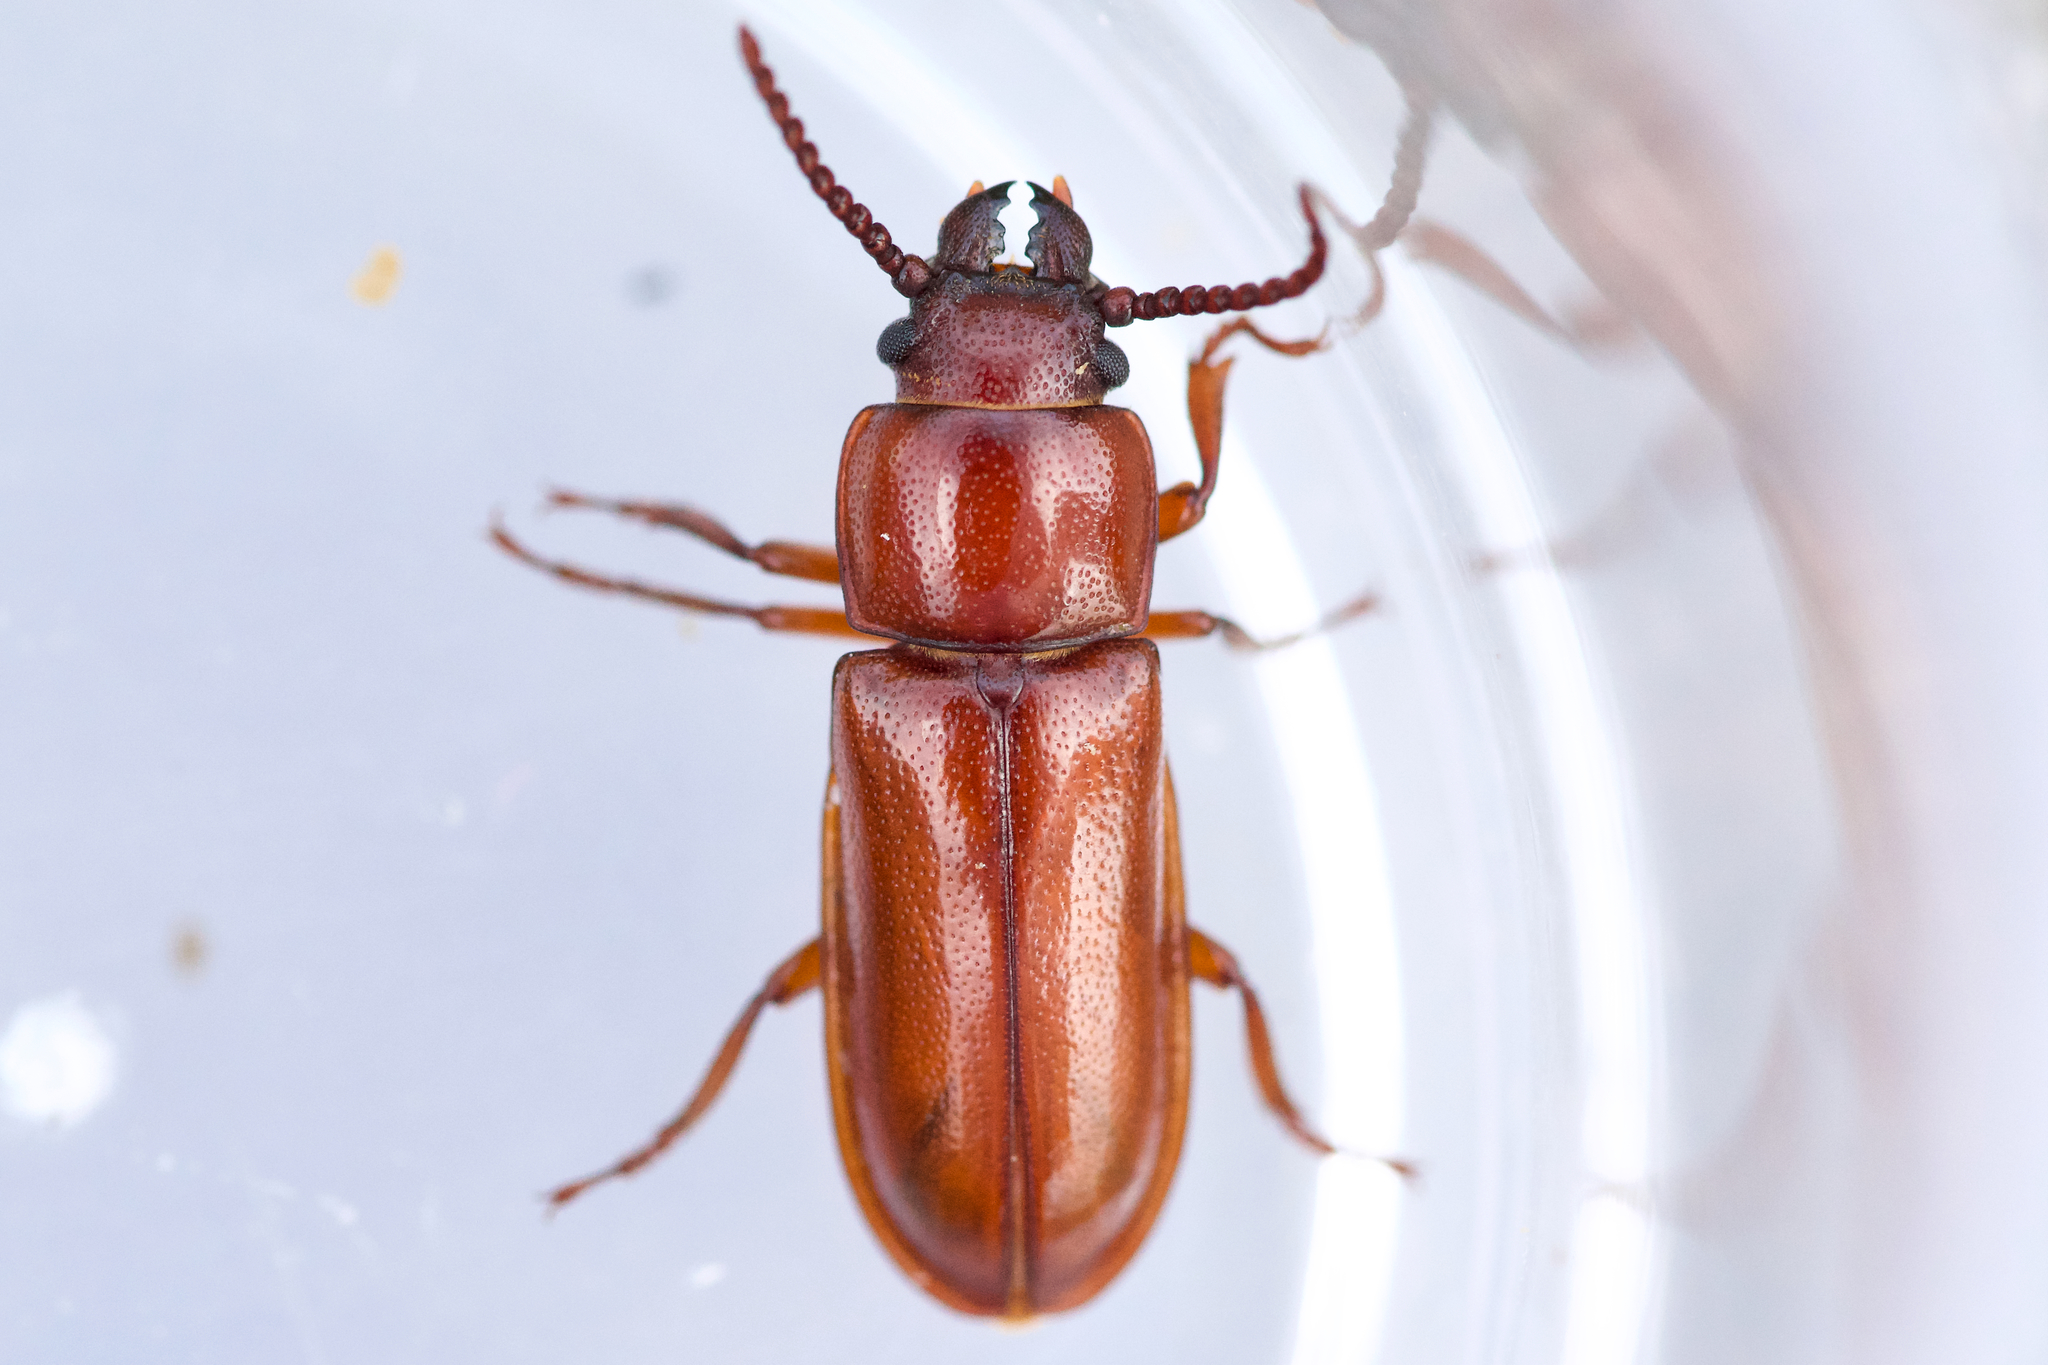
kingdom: Animalia
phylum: Arthropoda
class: Insecta
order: Coleoptera
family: Cerambycidae
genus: Neandra
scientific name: Neandra brunnea
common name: Pole borer
